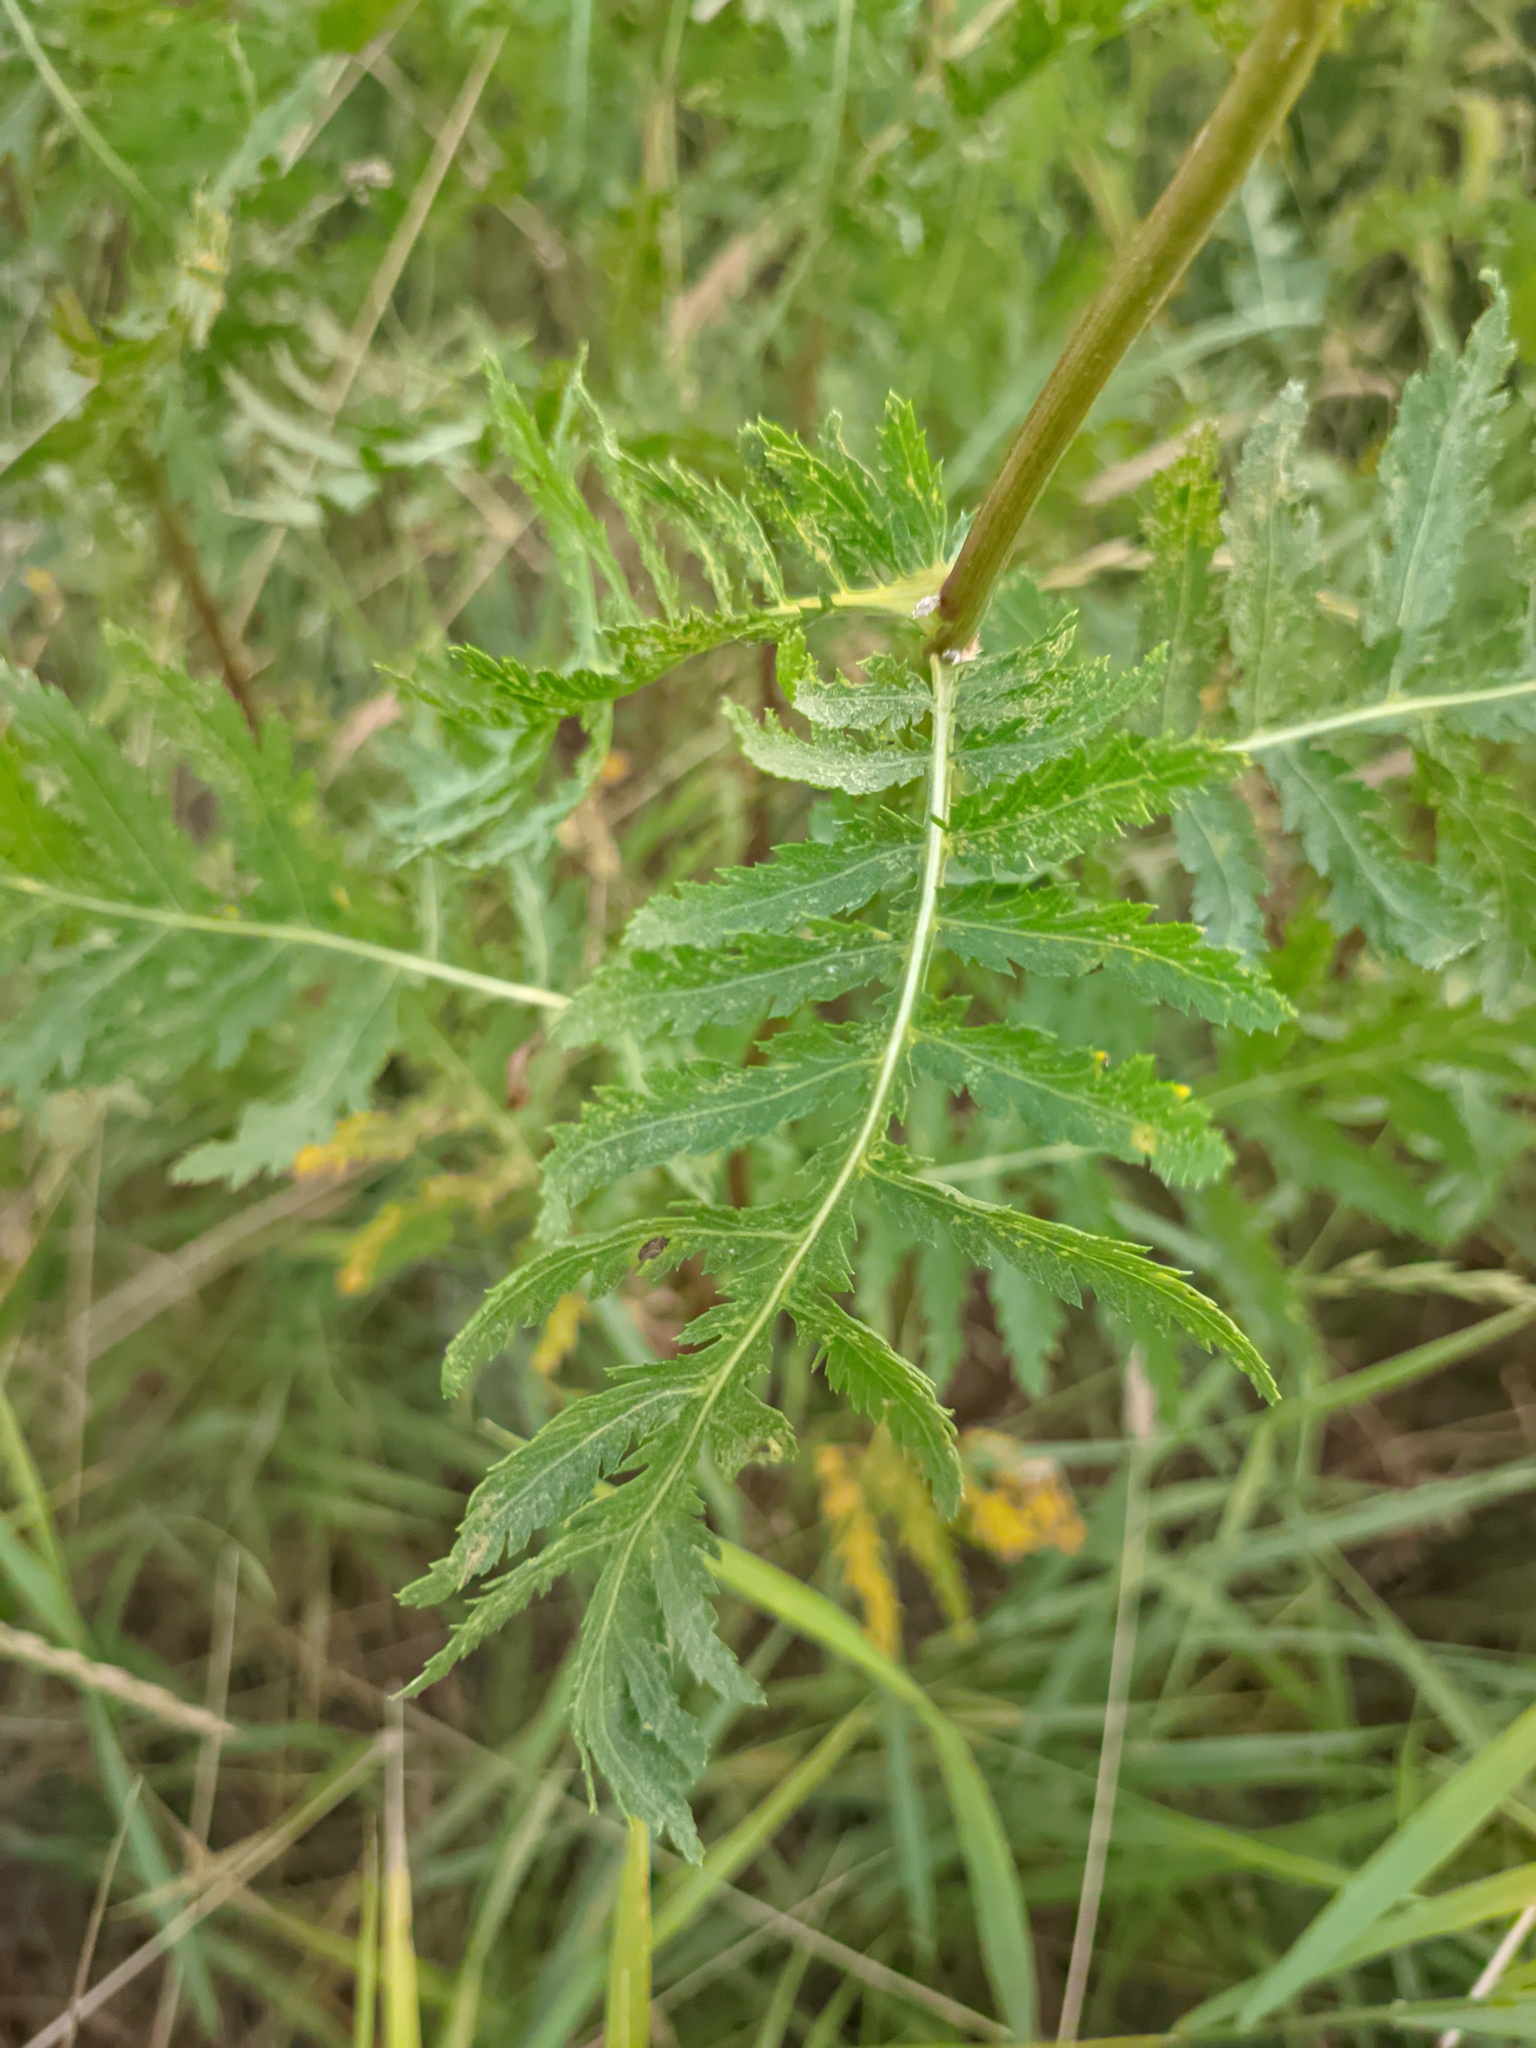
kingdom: Plantae
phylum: Tracheophyta
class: Magnoliopsida
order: Asterales
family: Asteraceae
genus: Tanacetum
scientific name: Tanacetum vulgare
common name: Common tansy
